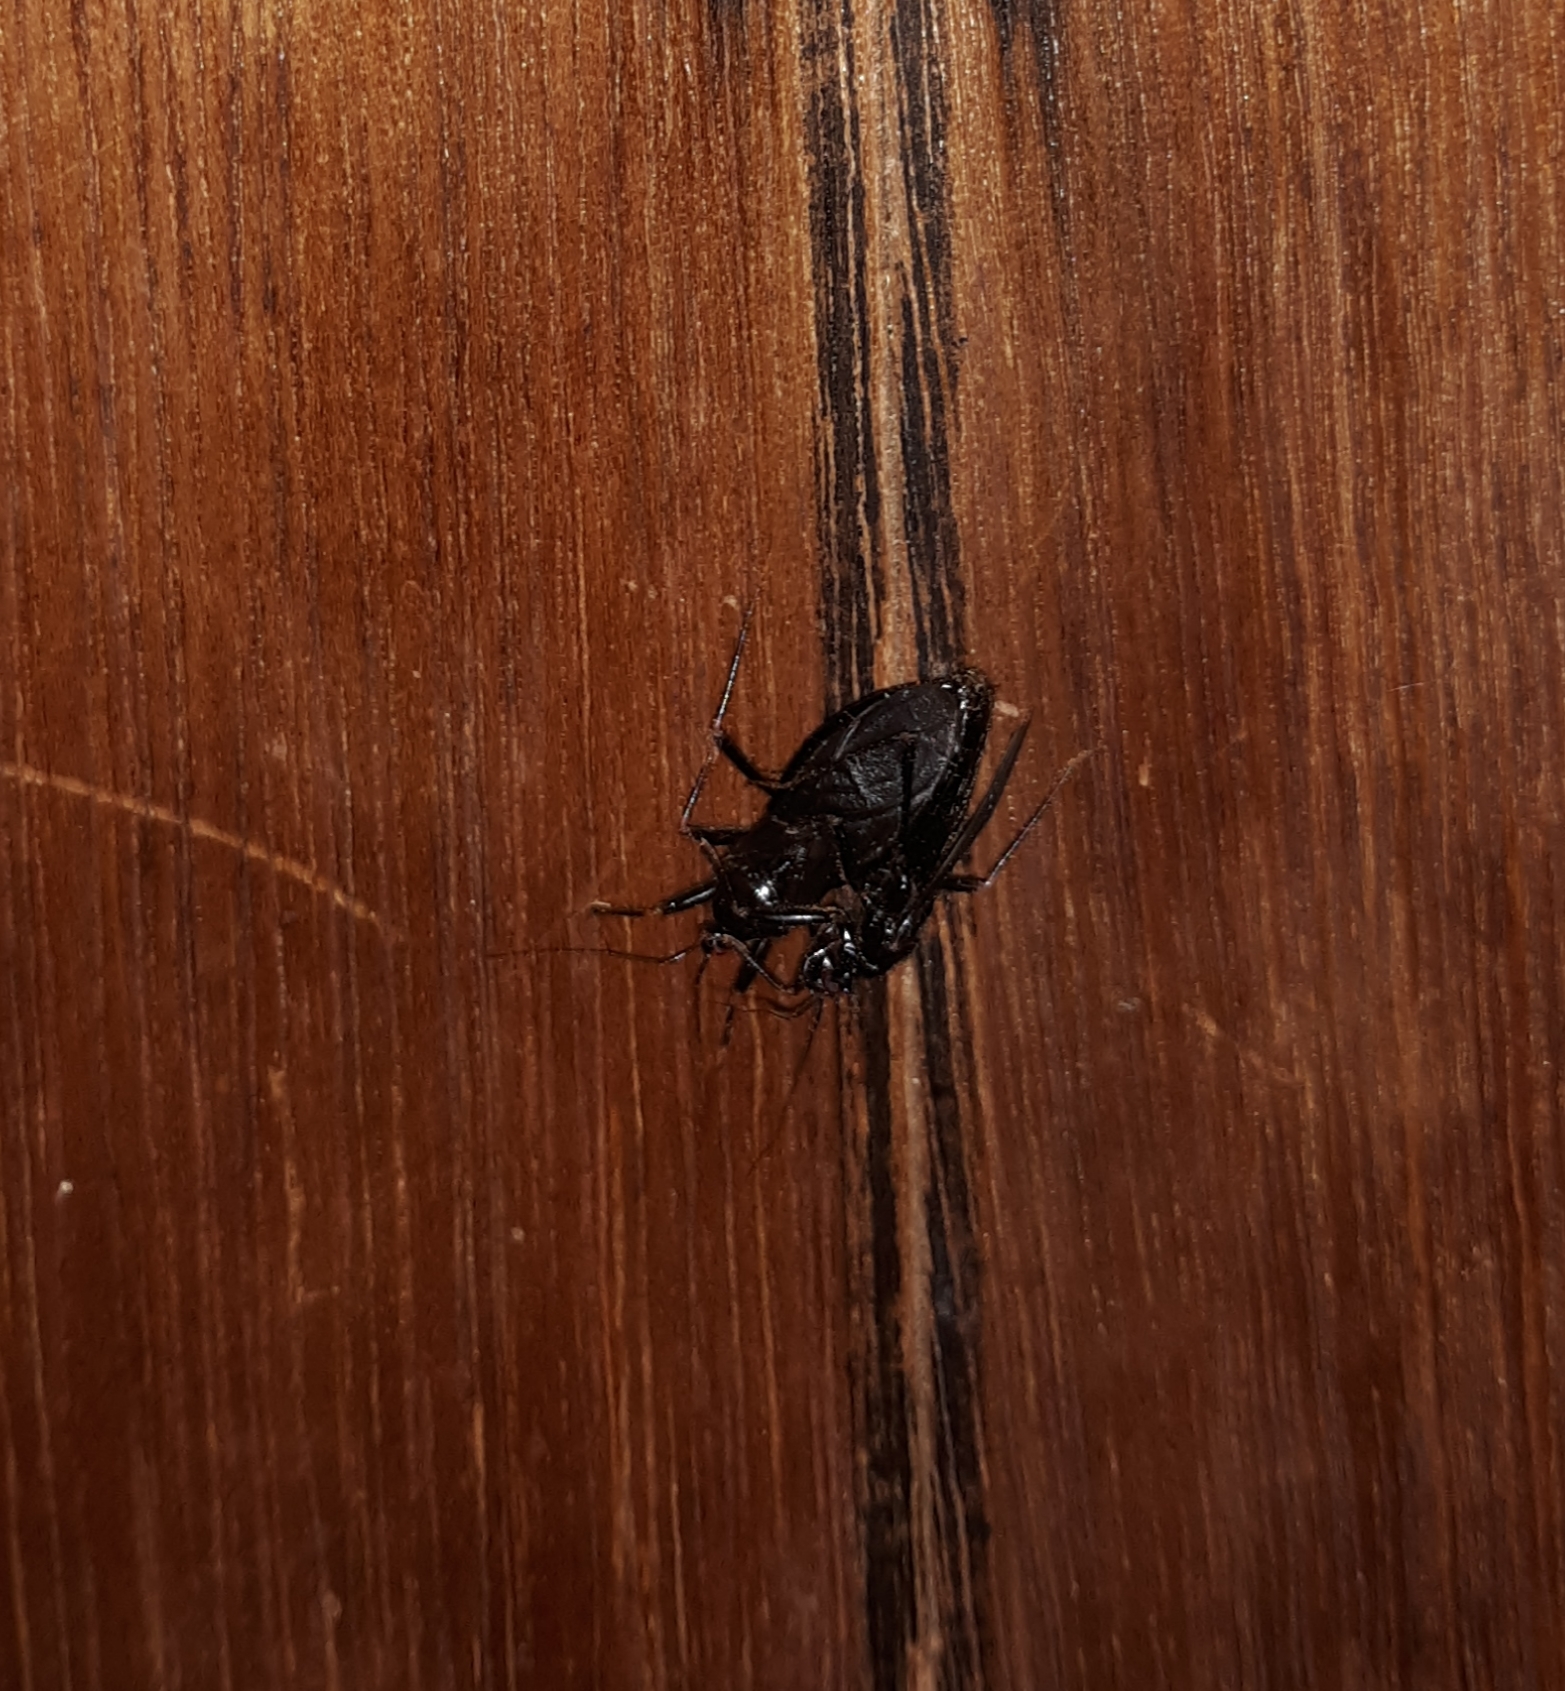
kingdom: Animalia
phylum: Arthropoda
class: Insecta
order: Hemiptera
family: Reduviidae
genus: Melanolestes
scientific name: Melanolestes picipes
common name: Assassin bug
